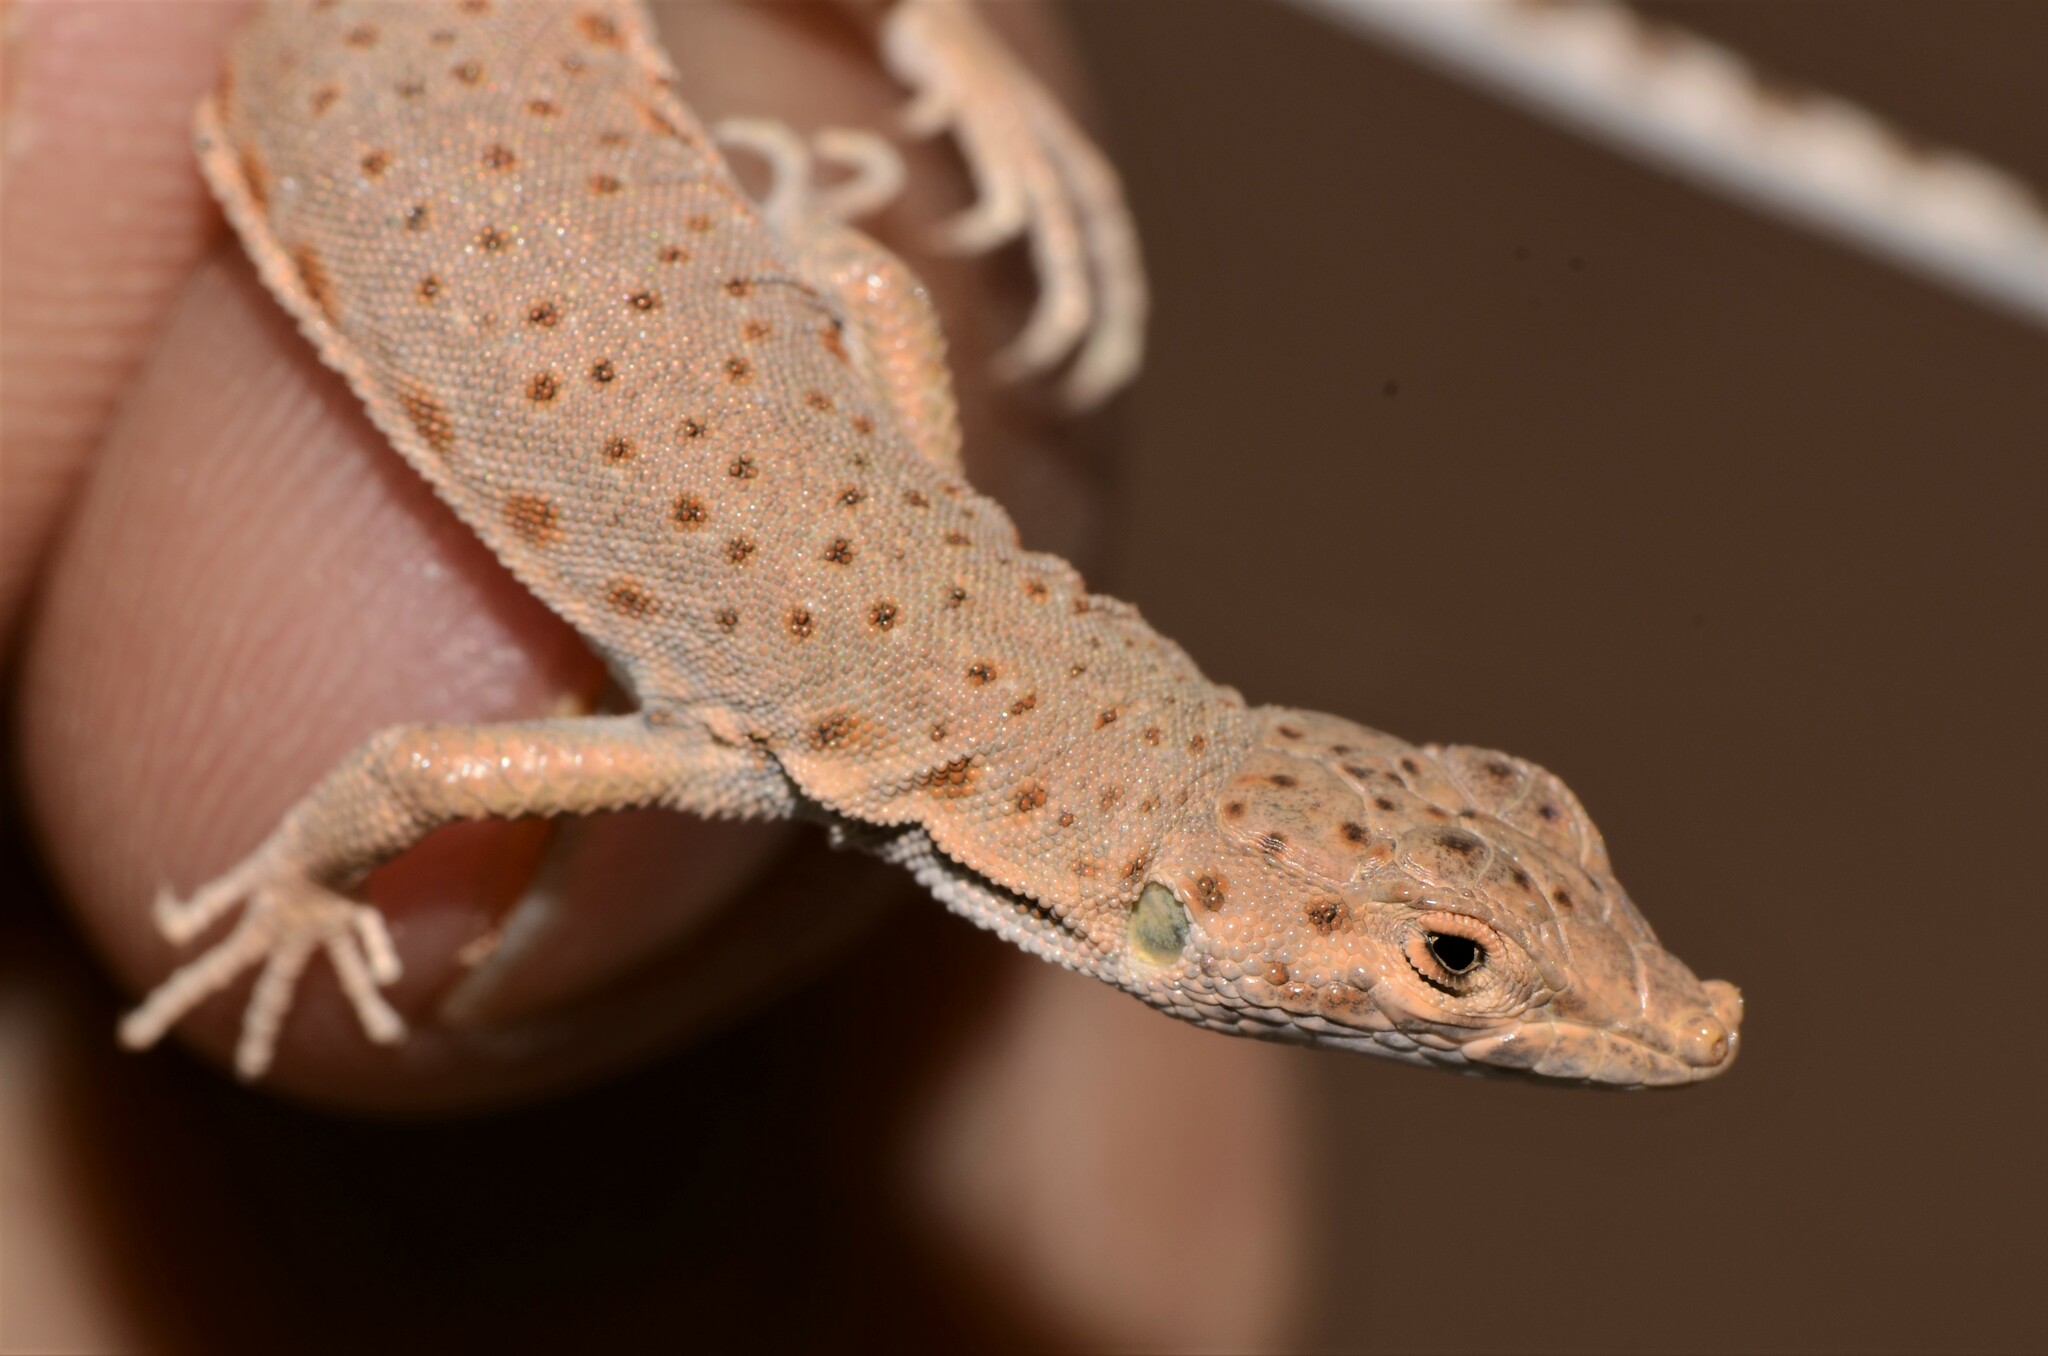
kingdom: Animalia
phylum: Chordata
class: Squamata
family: Lacertidae
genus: Mesalina
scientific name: Mesalina brevirostris
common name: Blanford's short-nosed desert lizard
